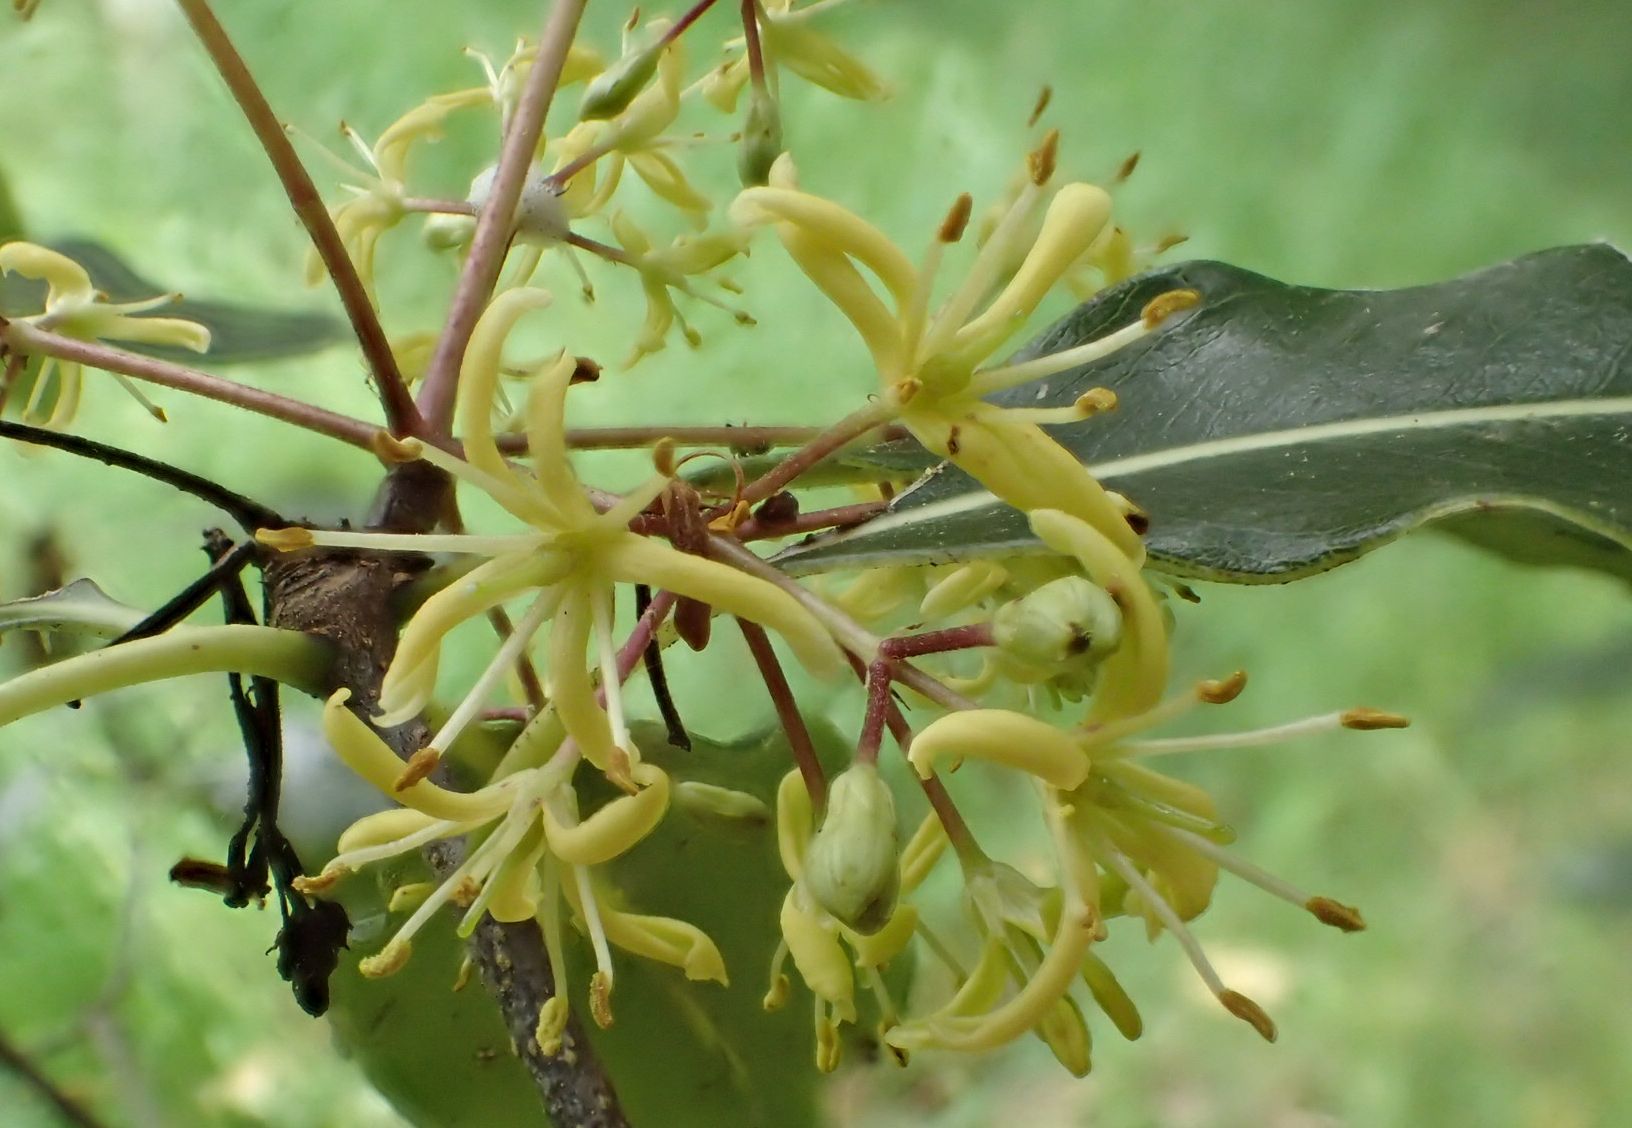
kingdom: Plantae
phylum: Tracheophyta
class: Magnoliopsida
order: Apiales
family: Pittosporaceae
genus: Pittosporum
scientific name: Pittosporum eugenioides
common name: Lemonwood
